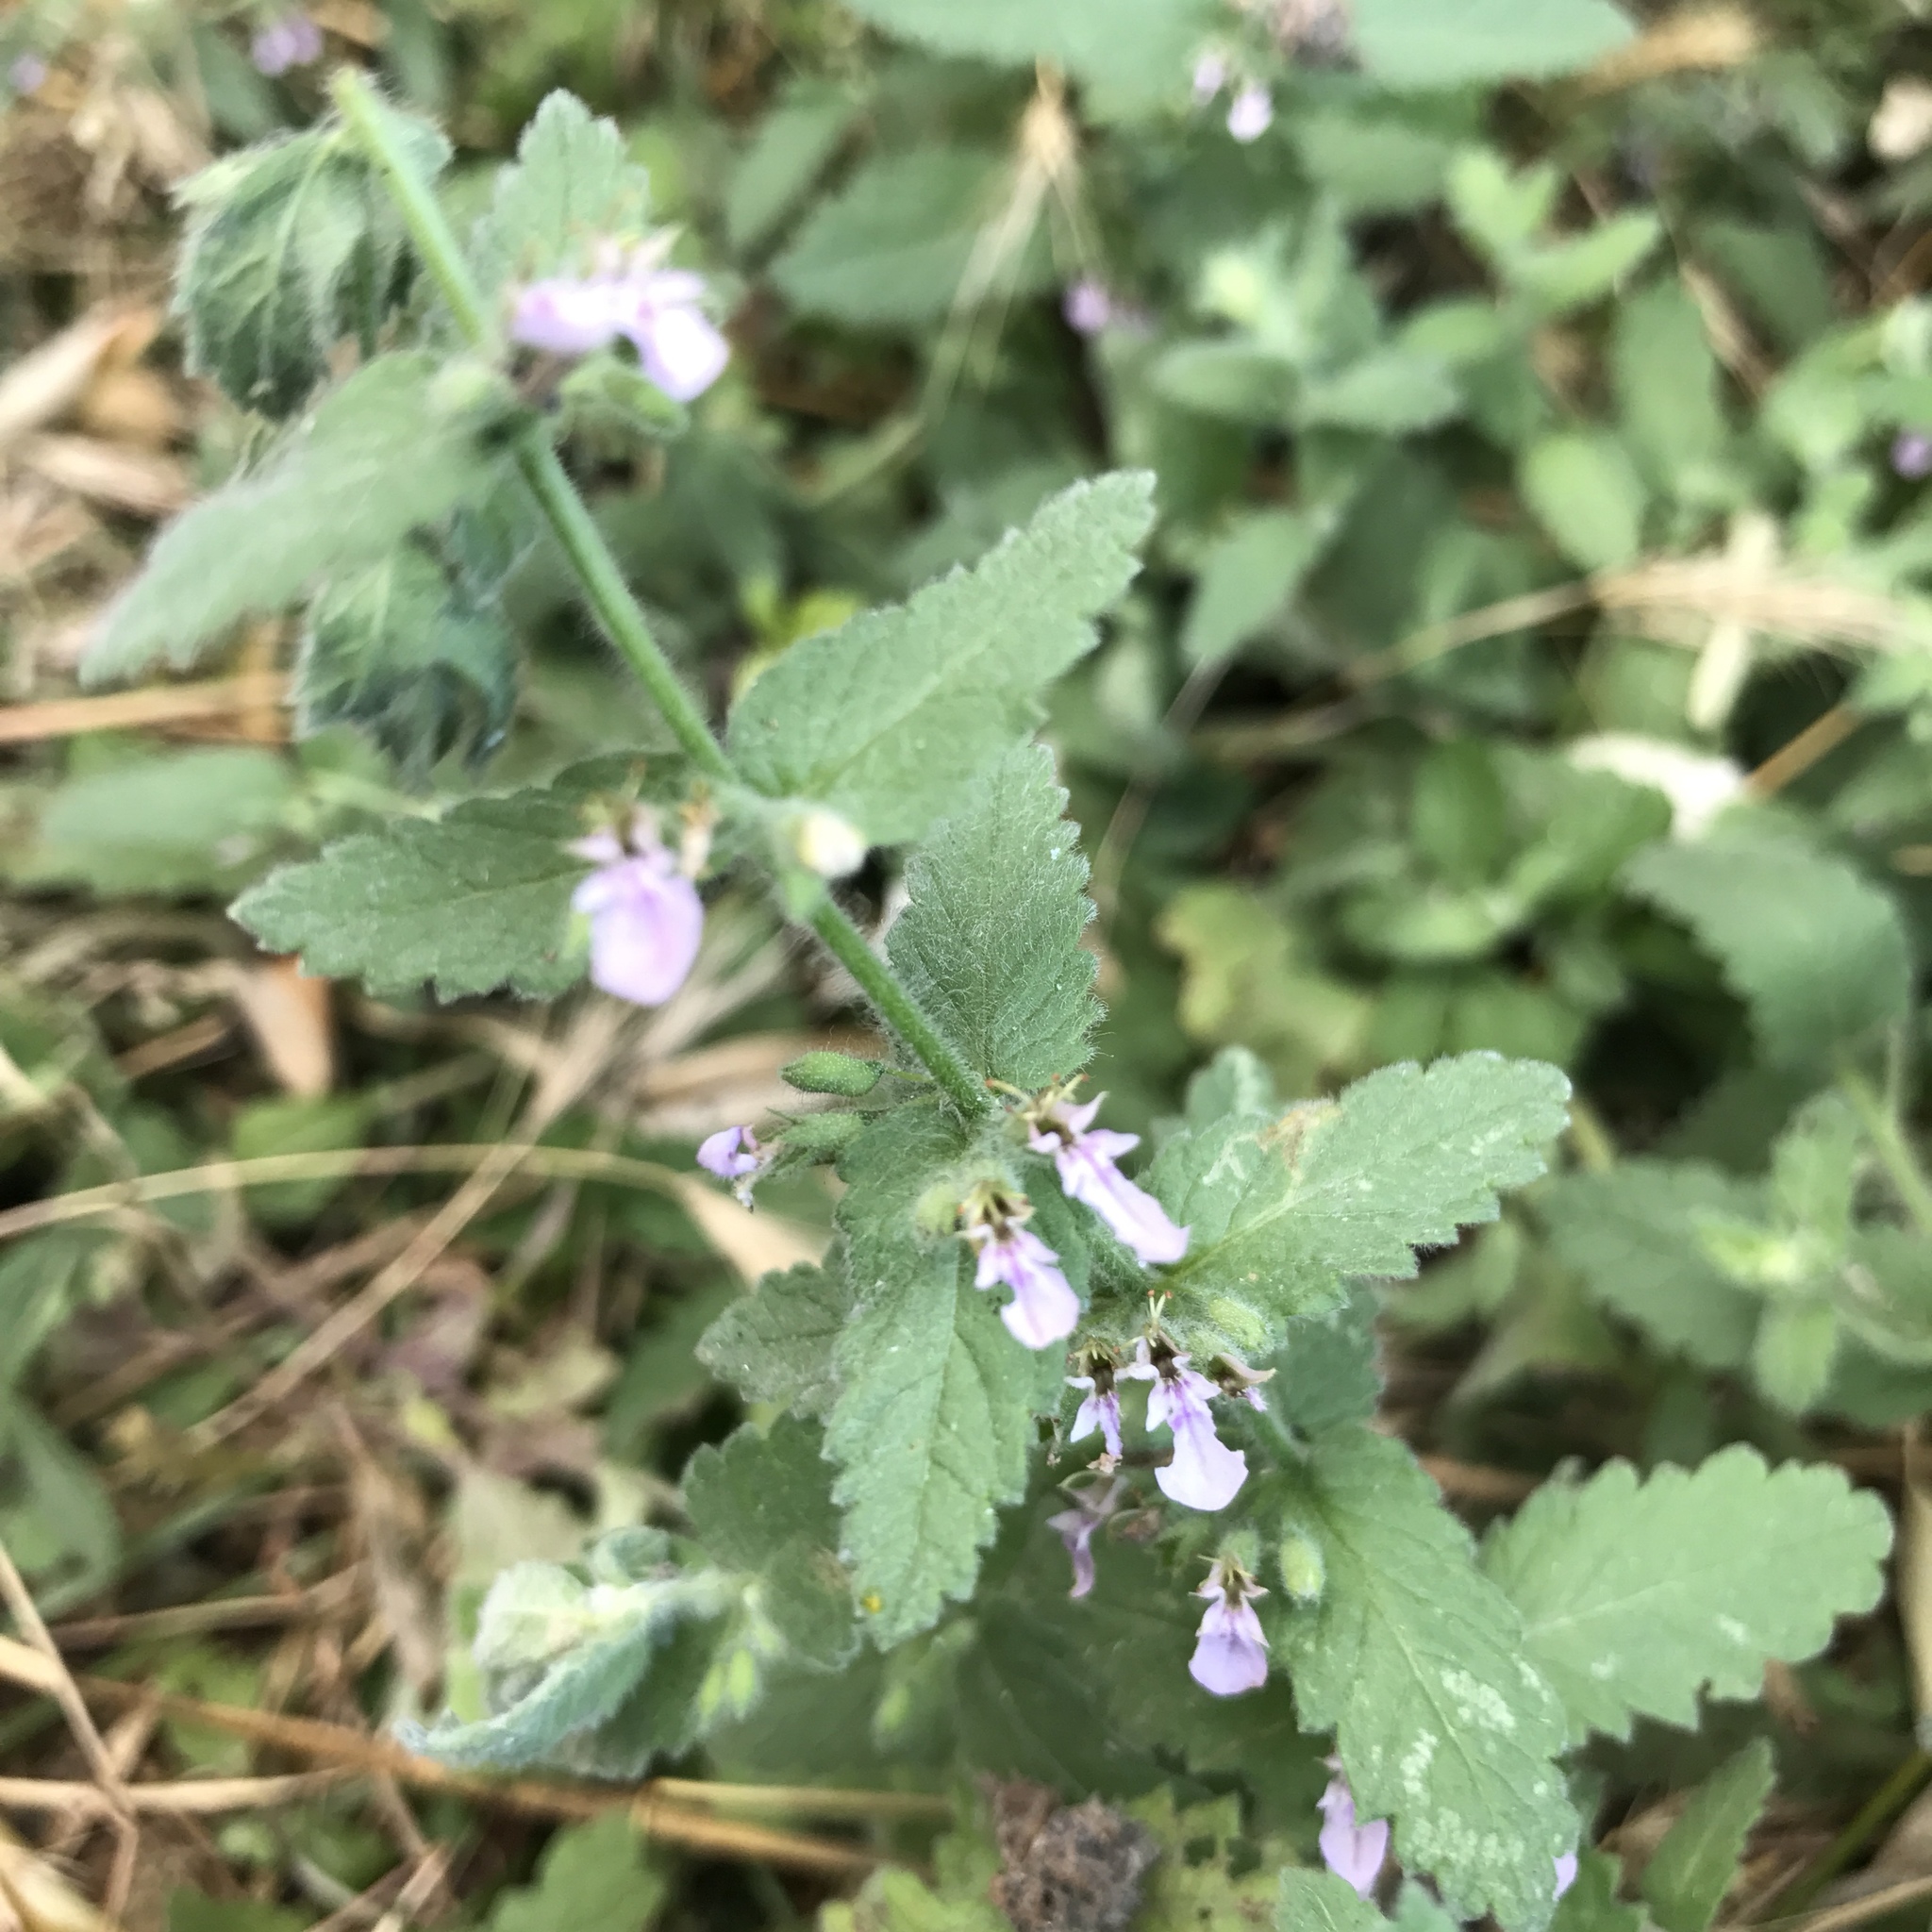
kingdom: Plantae
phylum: Tracheophyta
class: Magnoliopsida
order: Lamiales
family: Lamiaceae
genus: Teucrium
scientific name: Teucrium scordium
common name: Water germander
